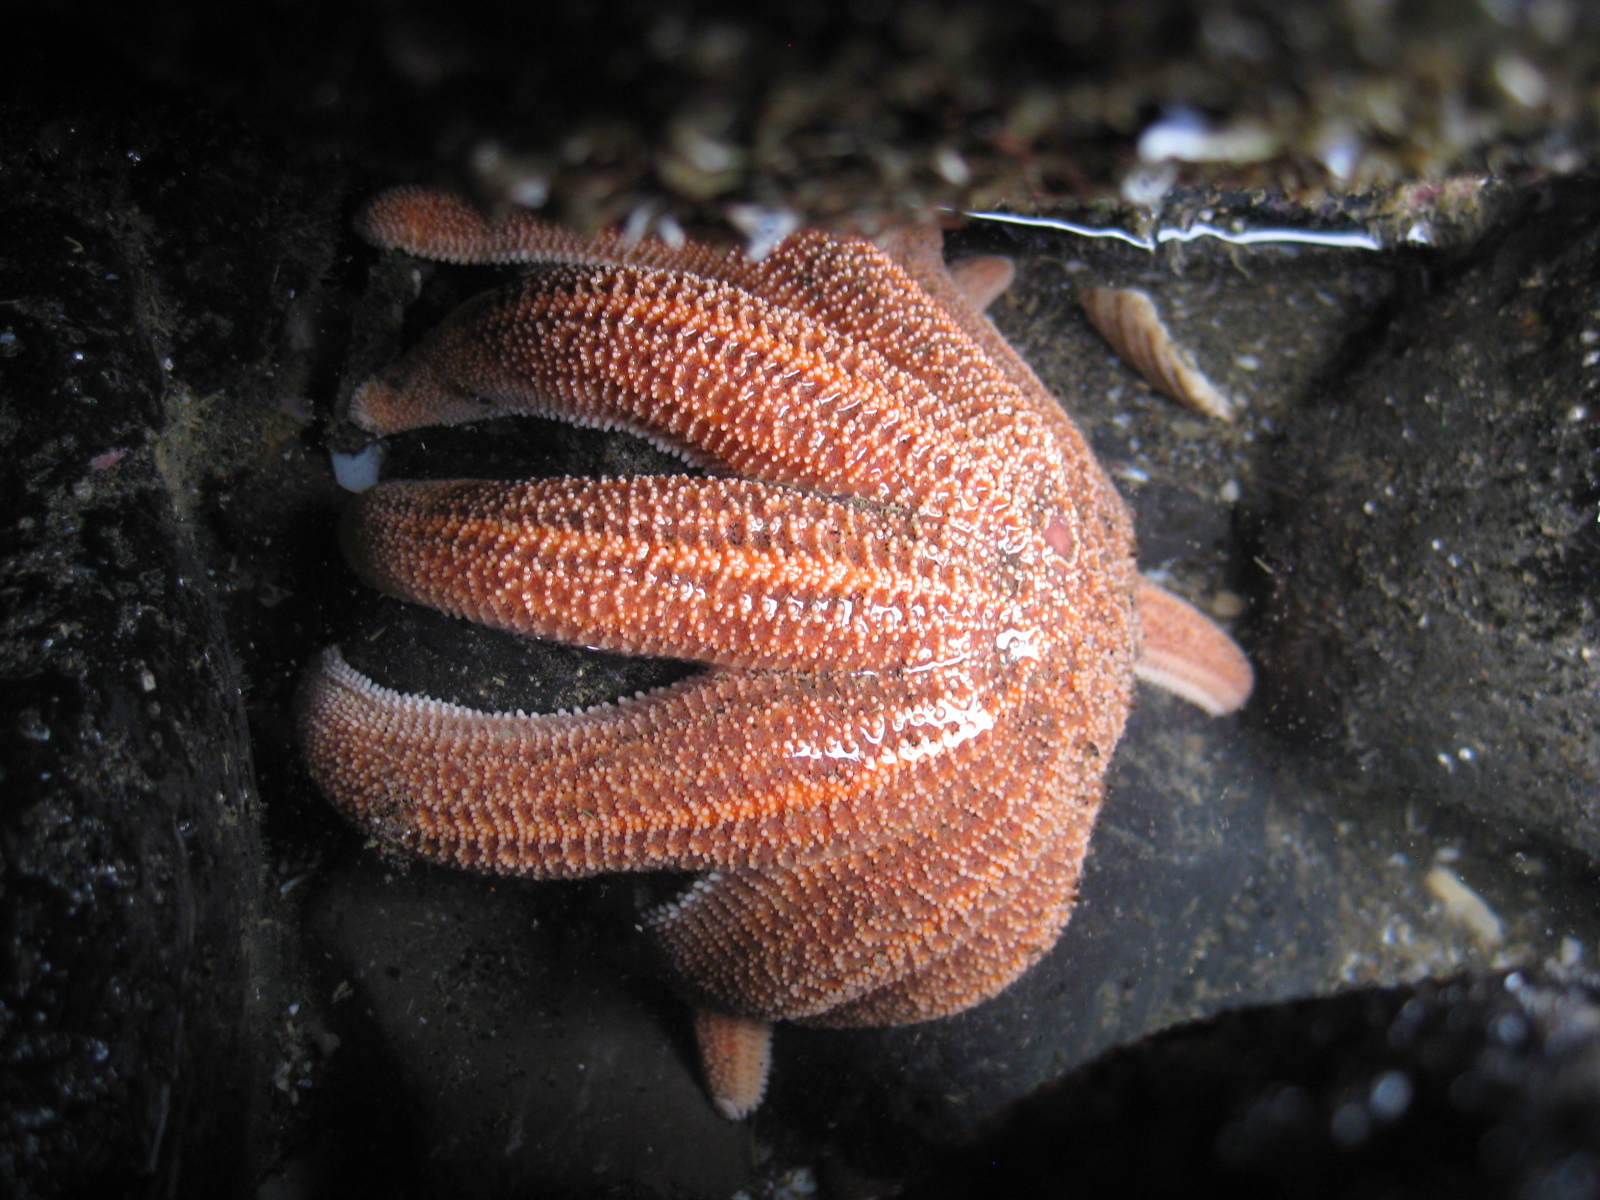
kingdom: Animalia
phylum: Echinodermata
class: Asteroidea
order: Forcipulatida
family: Stichasteridae
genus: Stichaster
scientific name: Stichaster australis
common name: Reef starfish
